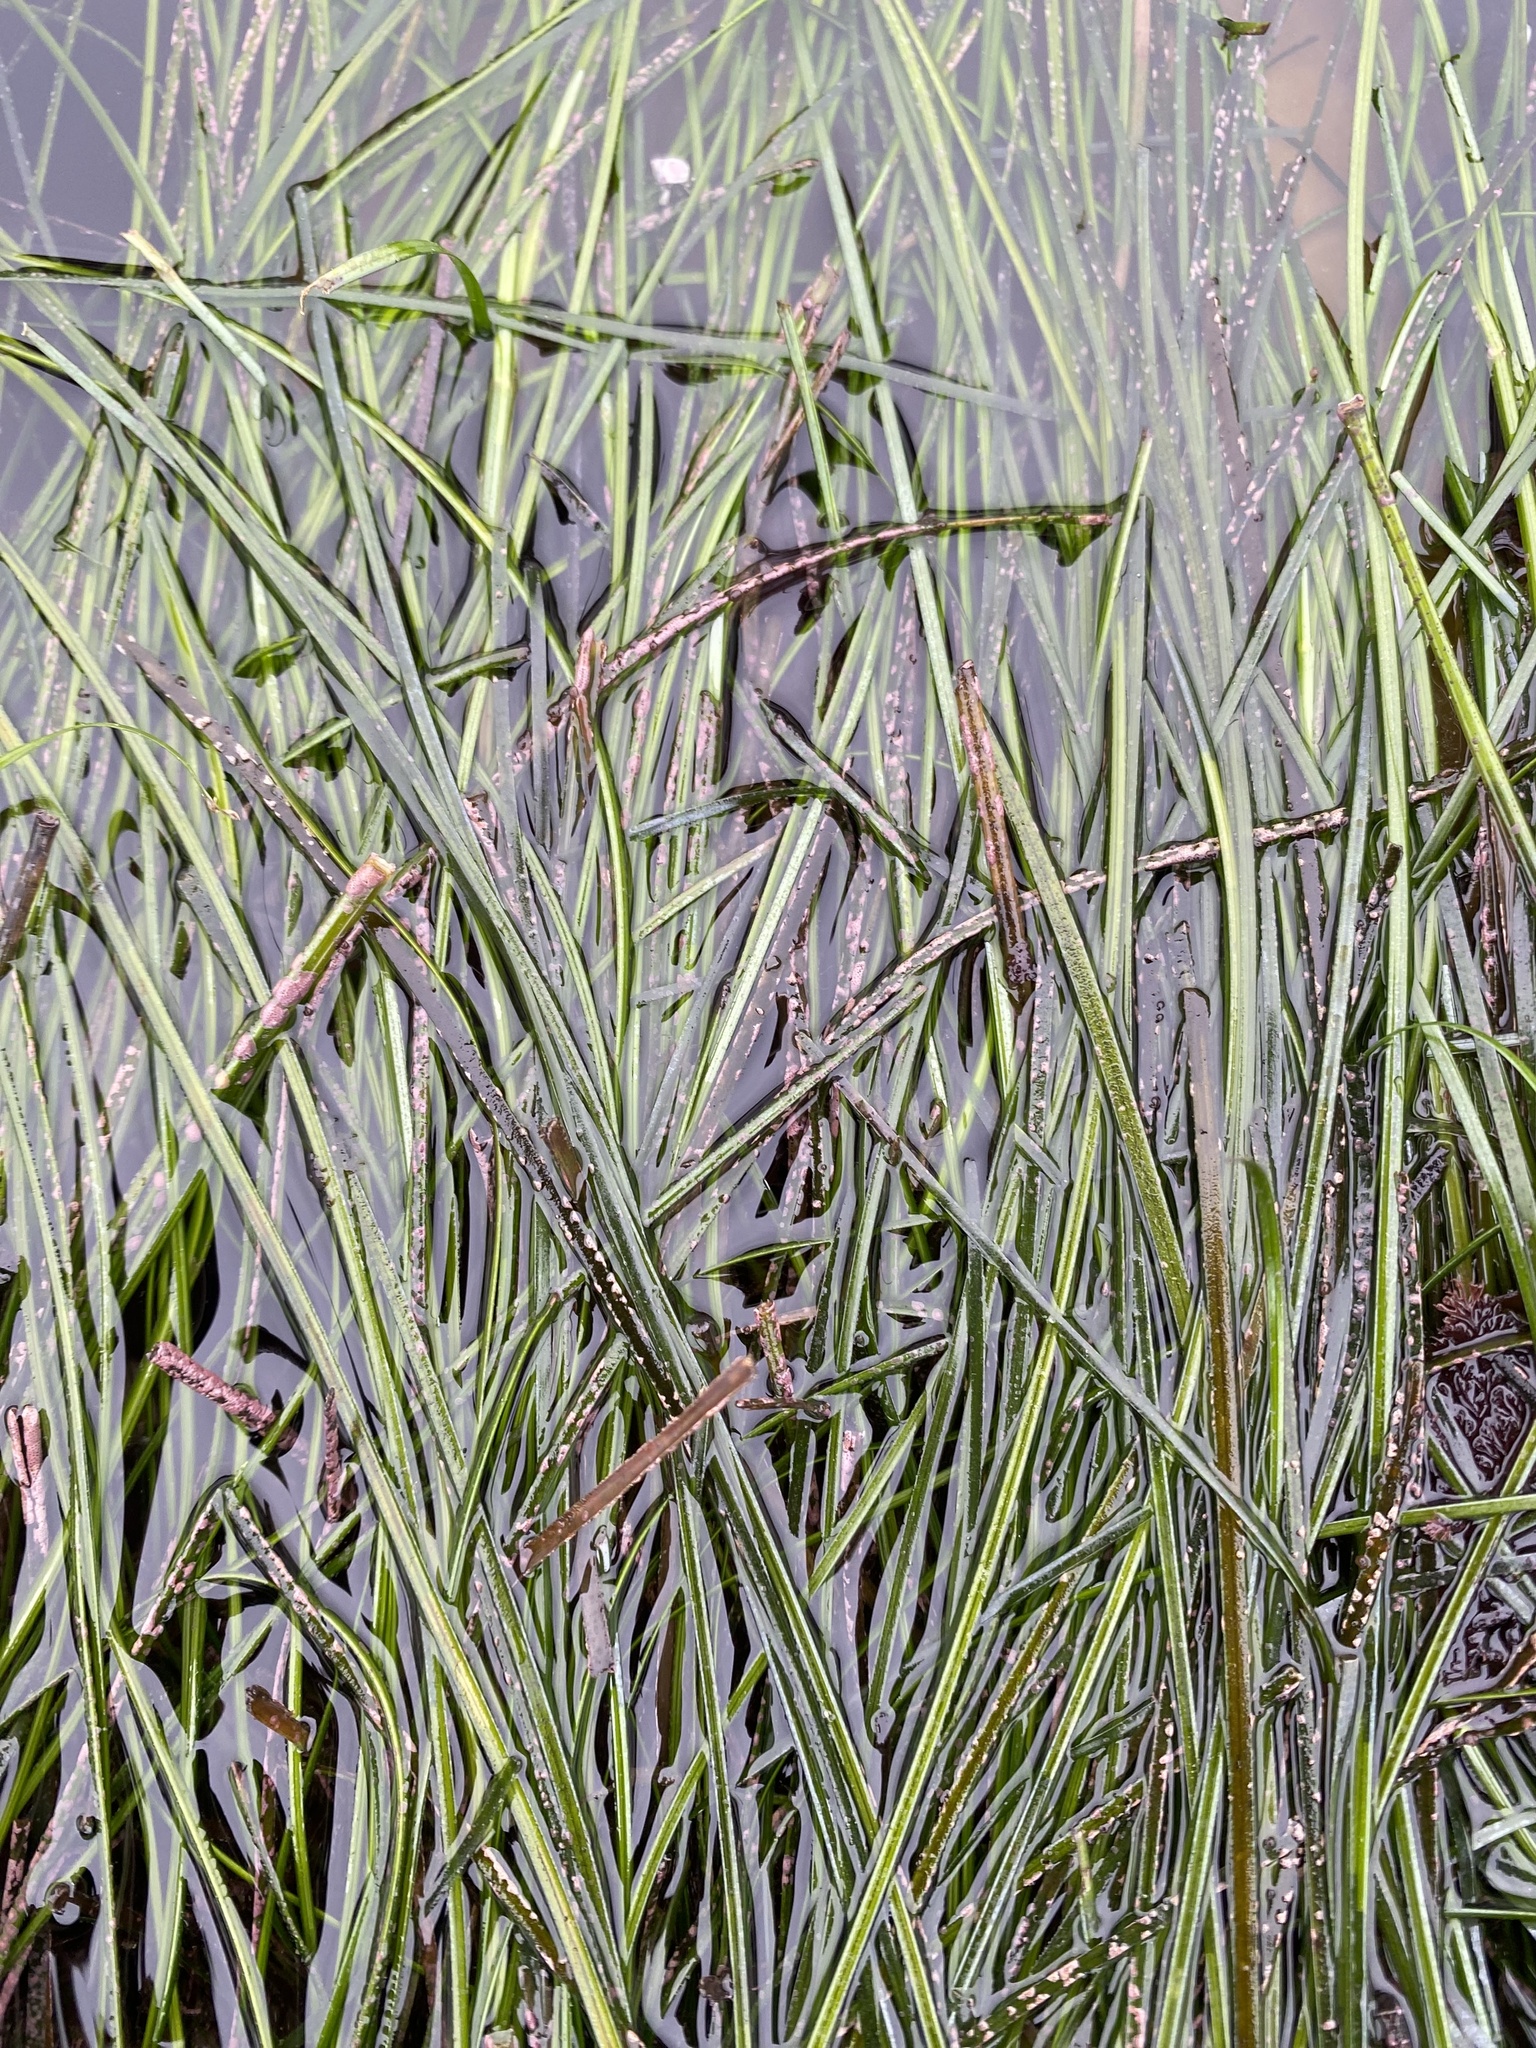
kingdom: Plantae
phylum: Tracheophyta
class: Liliopsida
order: Alismatales
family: Zosteraceae
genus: Phyllospadix
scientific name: Phyllospadix torreyi
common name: Surfgrass
